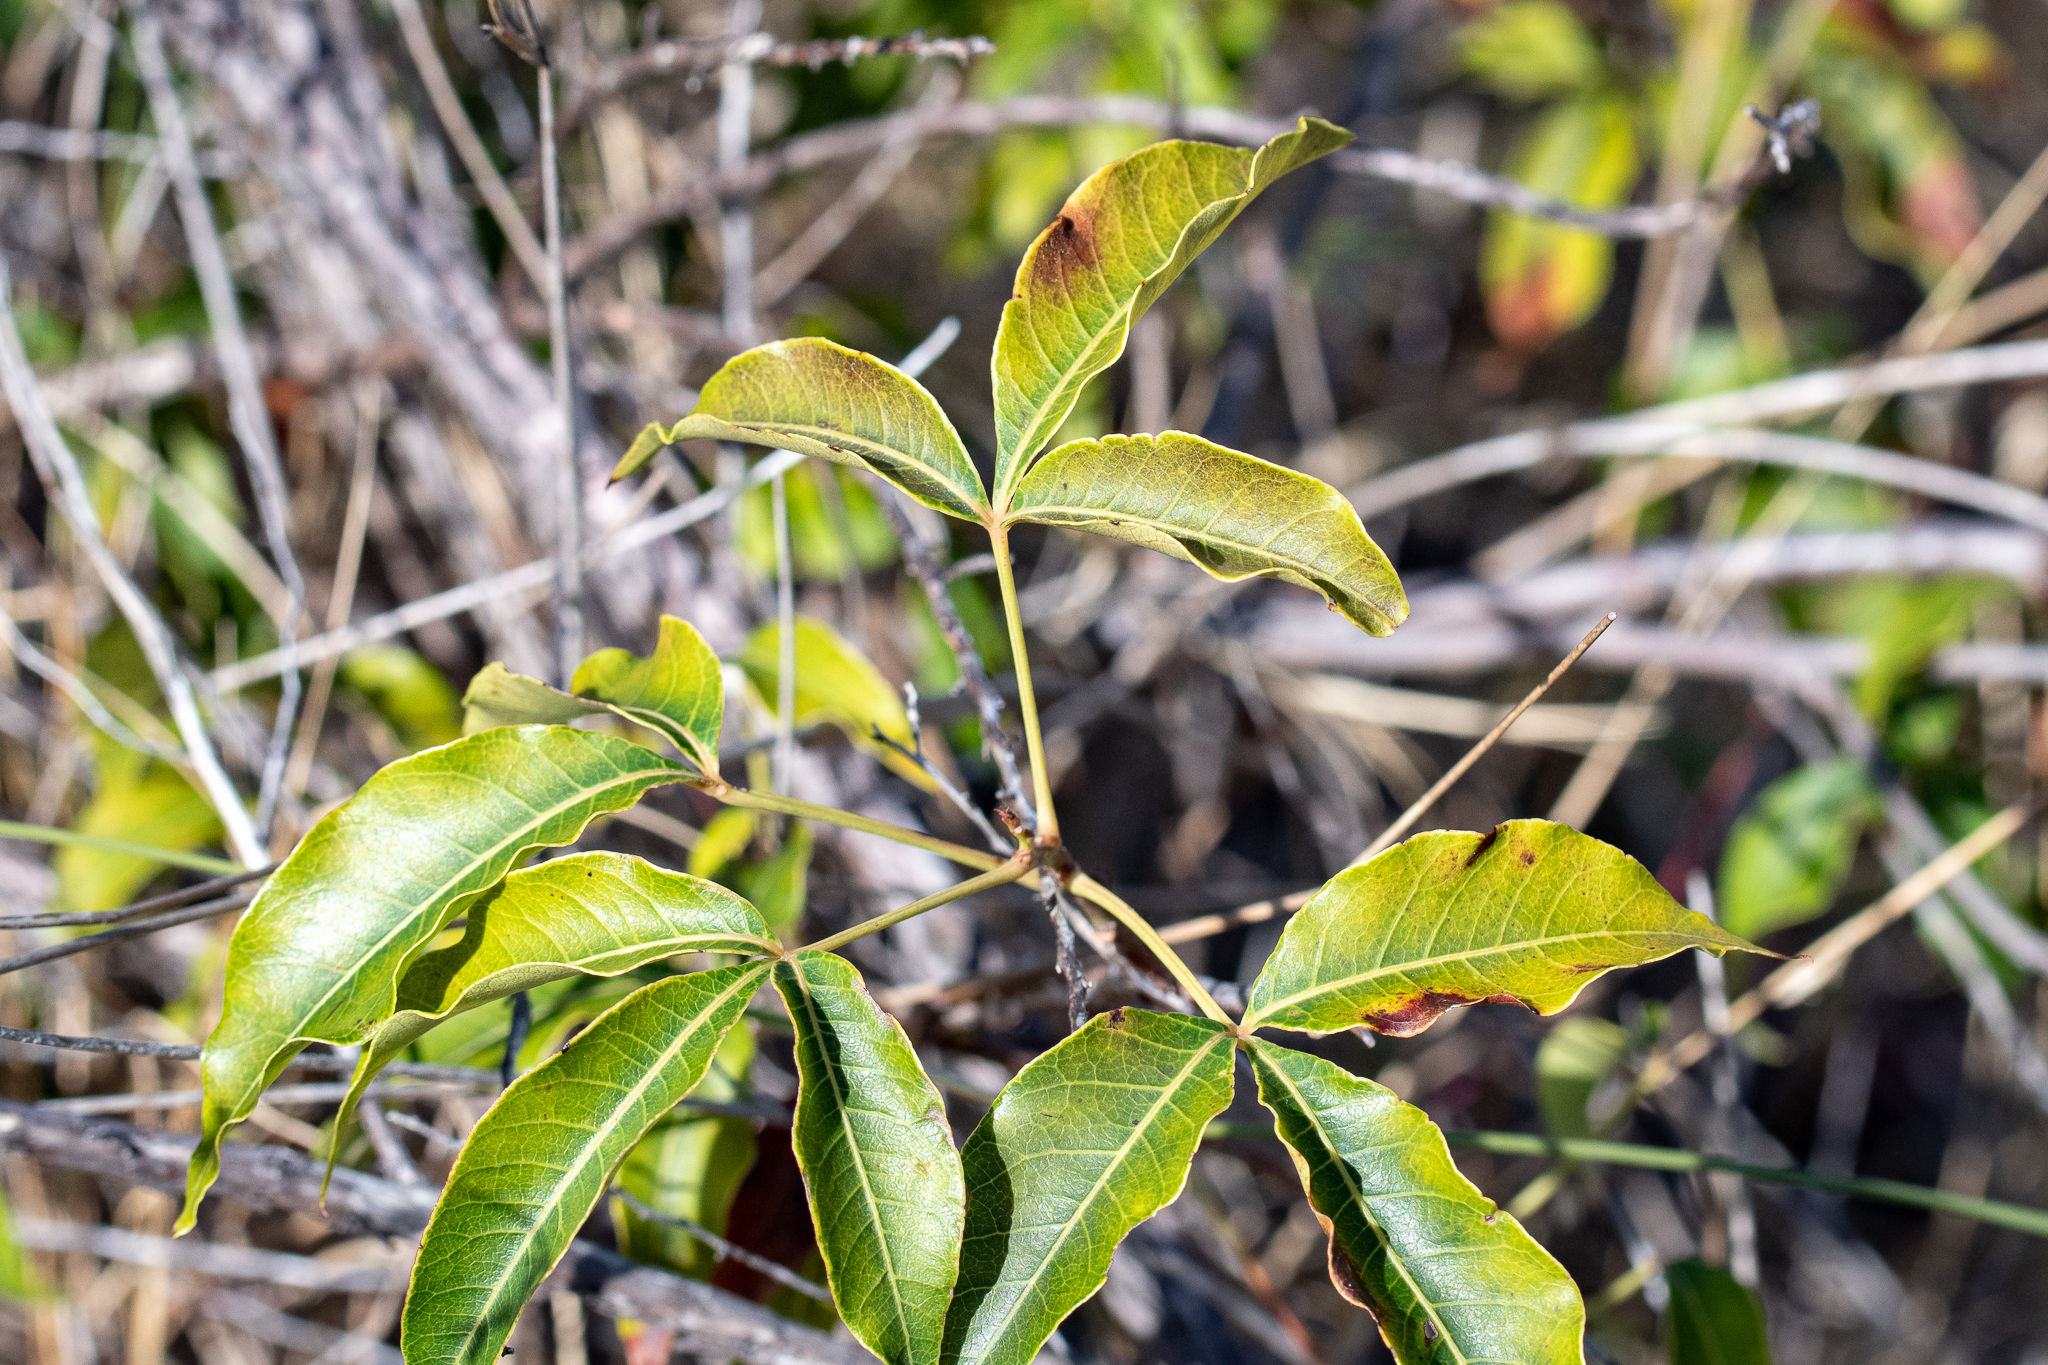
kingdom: Plantae
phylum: Tracheophyta
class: Magnoliopsida
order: Sapindales
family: Anacardiaceae
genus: Searsia
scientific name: Searsia chirindensis
